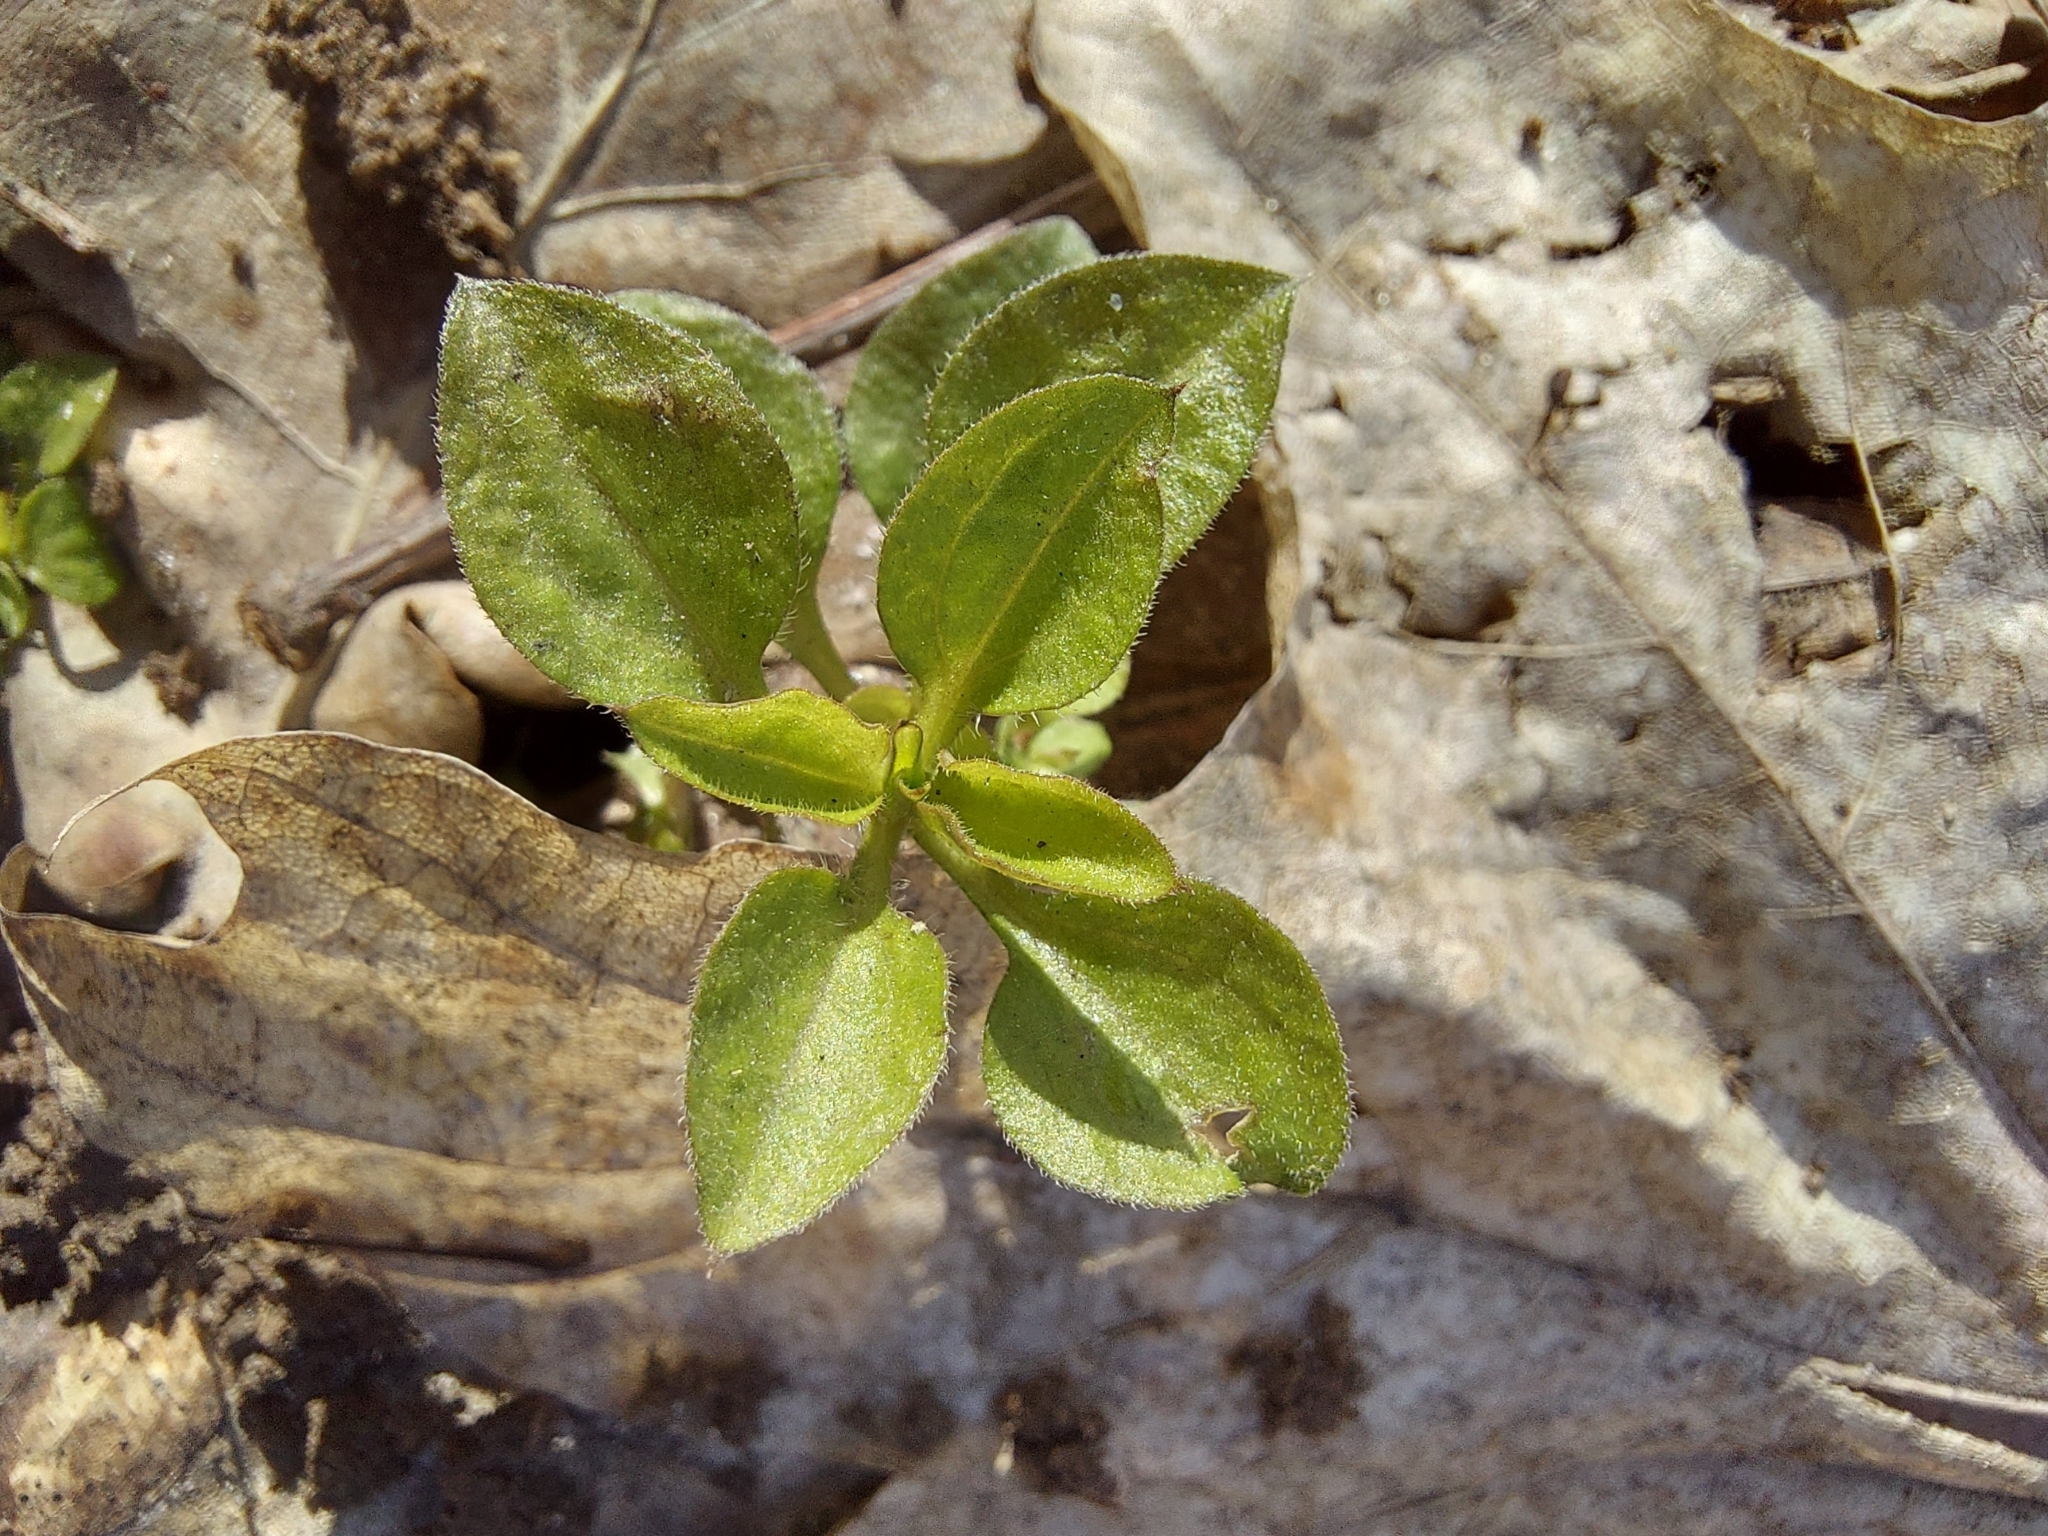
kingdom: Plantae
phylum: Tracheophyta
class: Magnoliopsida
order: Caryophyllales
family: Caryophyllaceae
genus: Moehringia
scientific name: Moehringia trinervia
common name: Three-nerved sandwort
